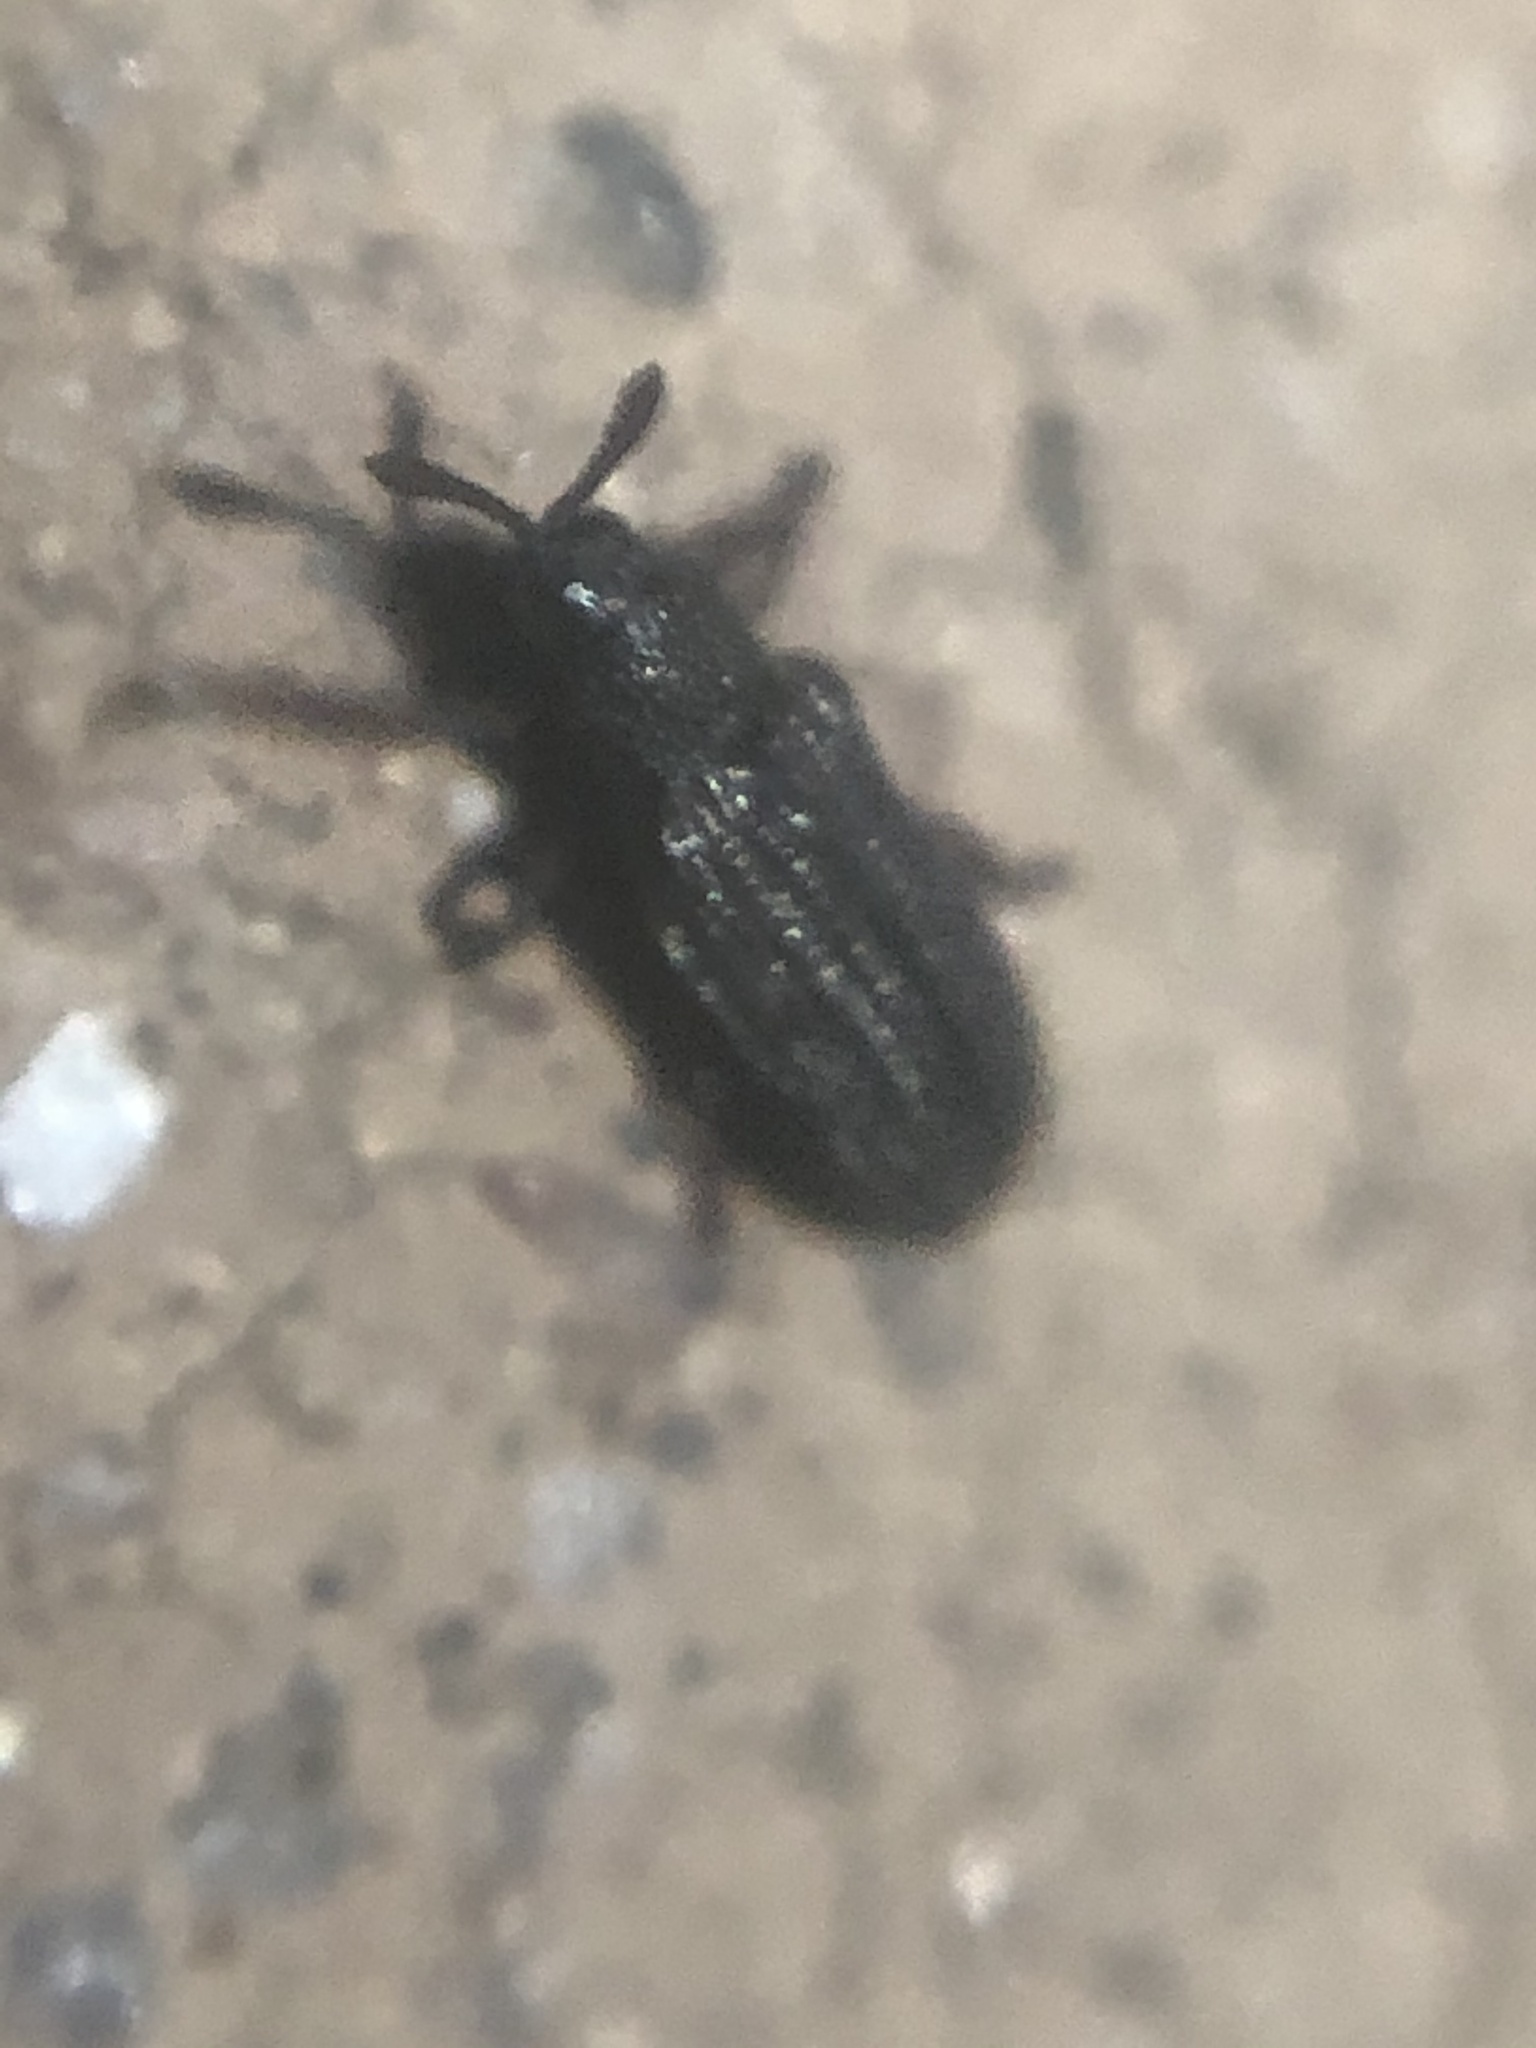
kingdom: Animalia
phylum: Arthropoda
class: Insecta
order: Coleoptera
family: Chrysomelidae
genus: Glyphuroplata
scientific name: Glyphuroplata uniformis
